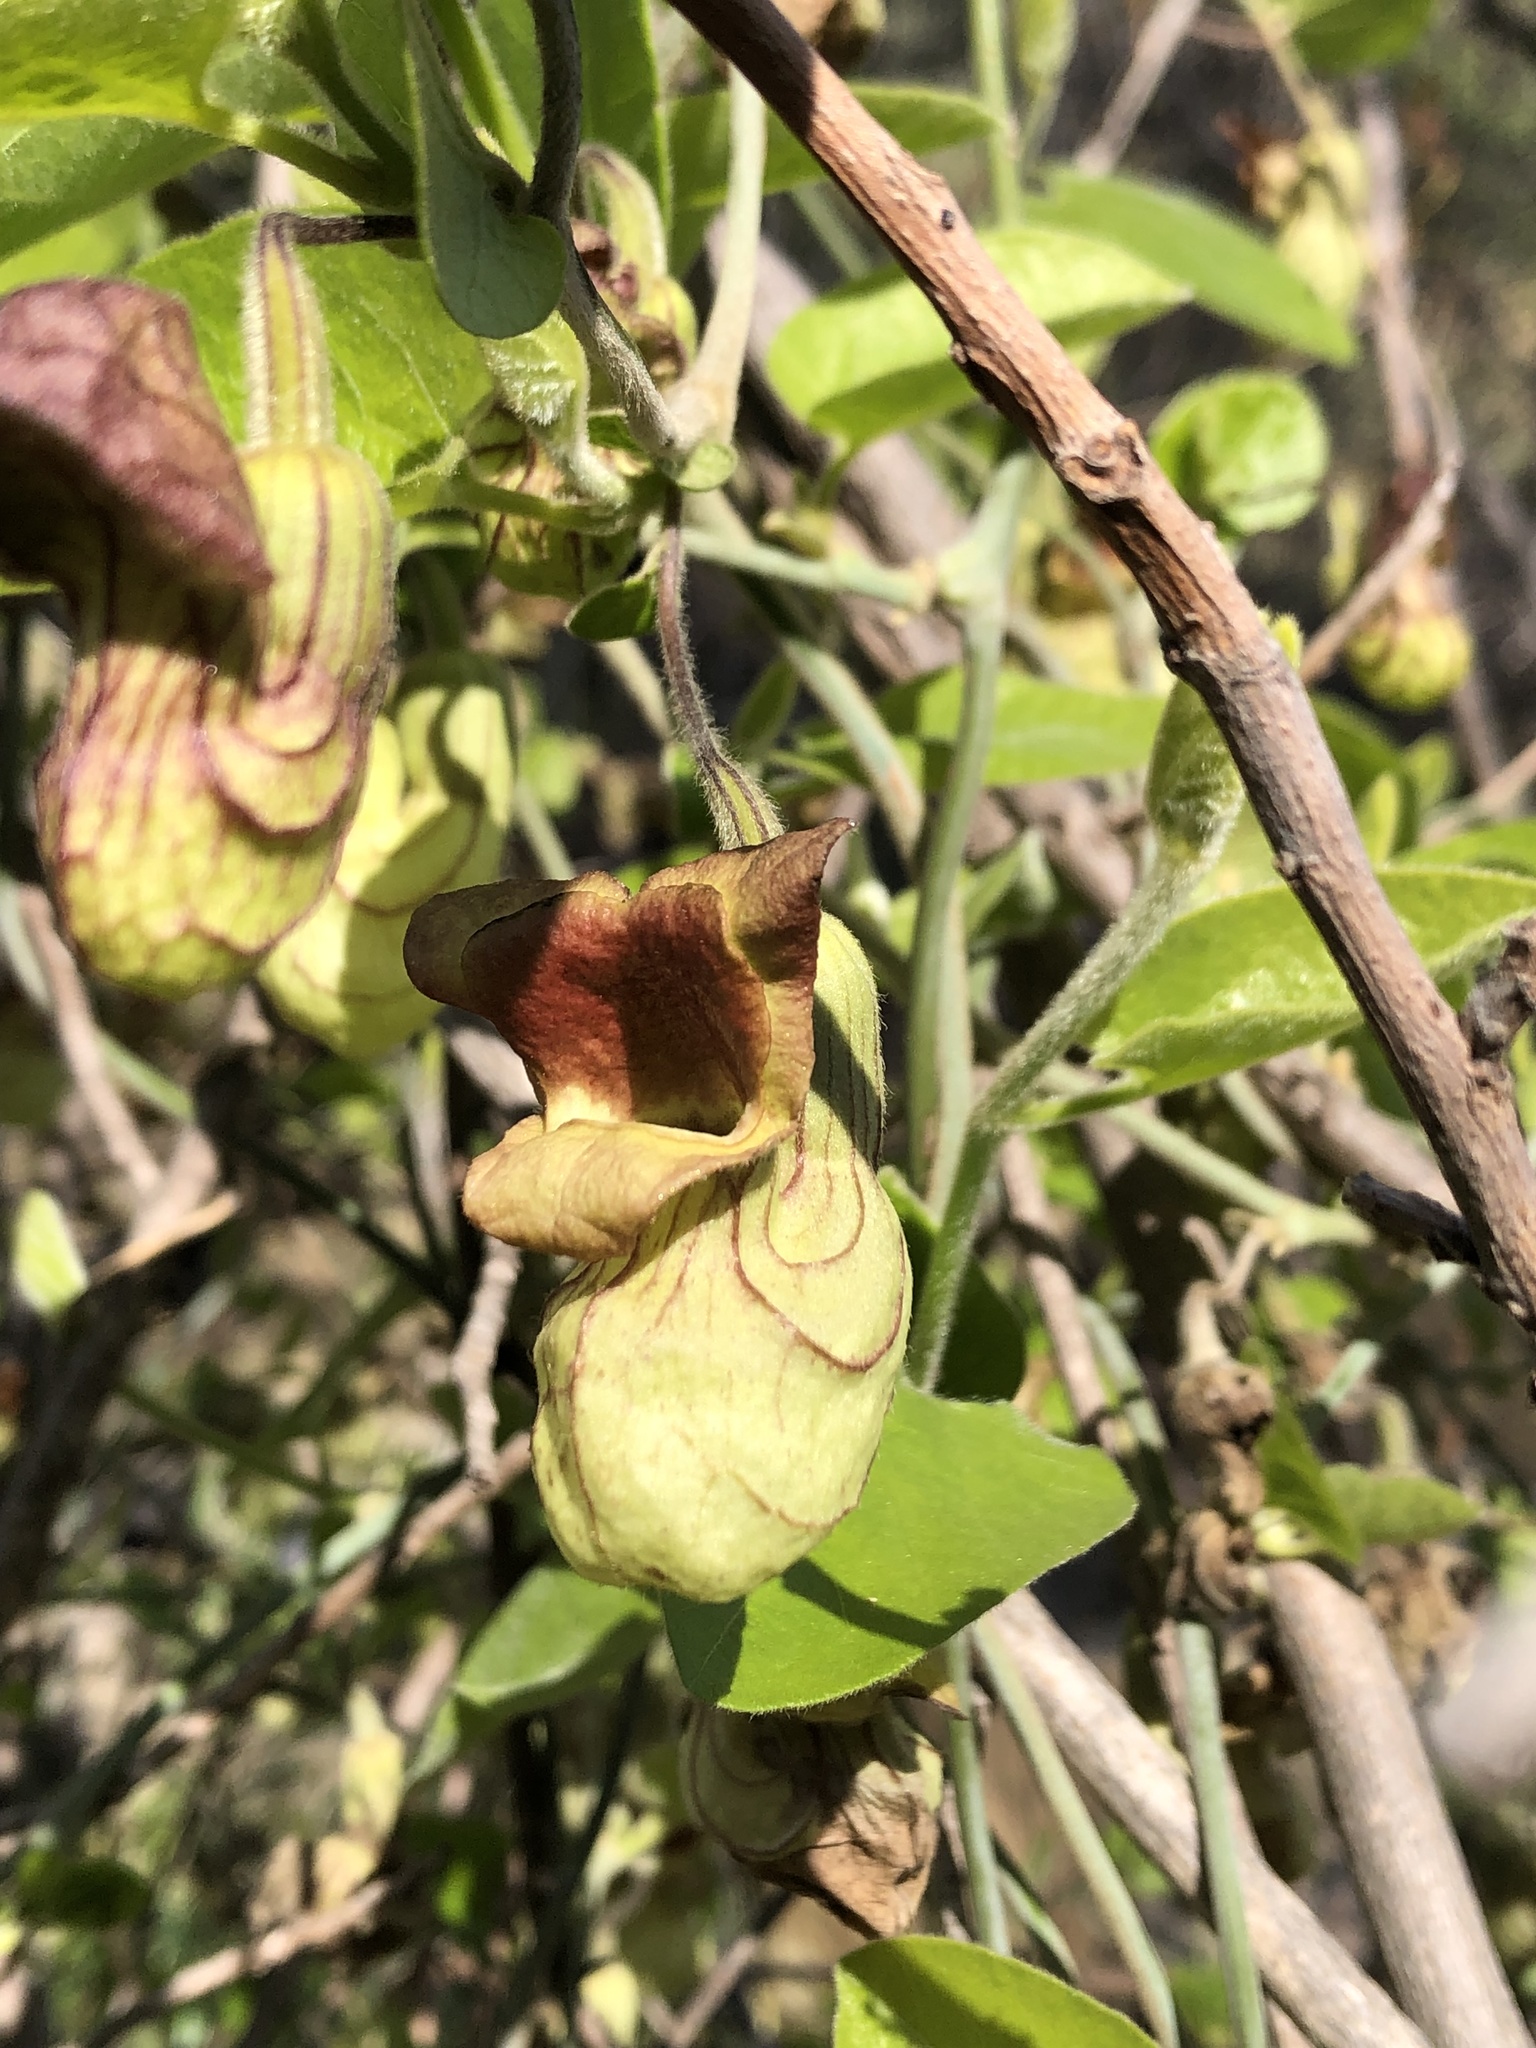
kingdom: Plantae
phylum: Tracheophyta
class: Magnoliopsida
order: Piperales
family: Aristolochiaceae
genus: Isotrema
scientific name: Isotrema californicum
